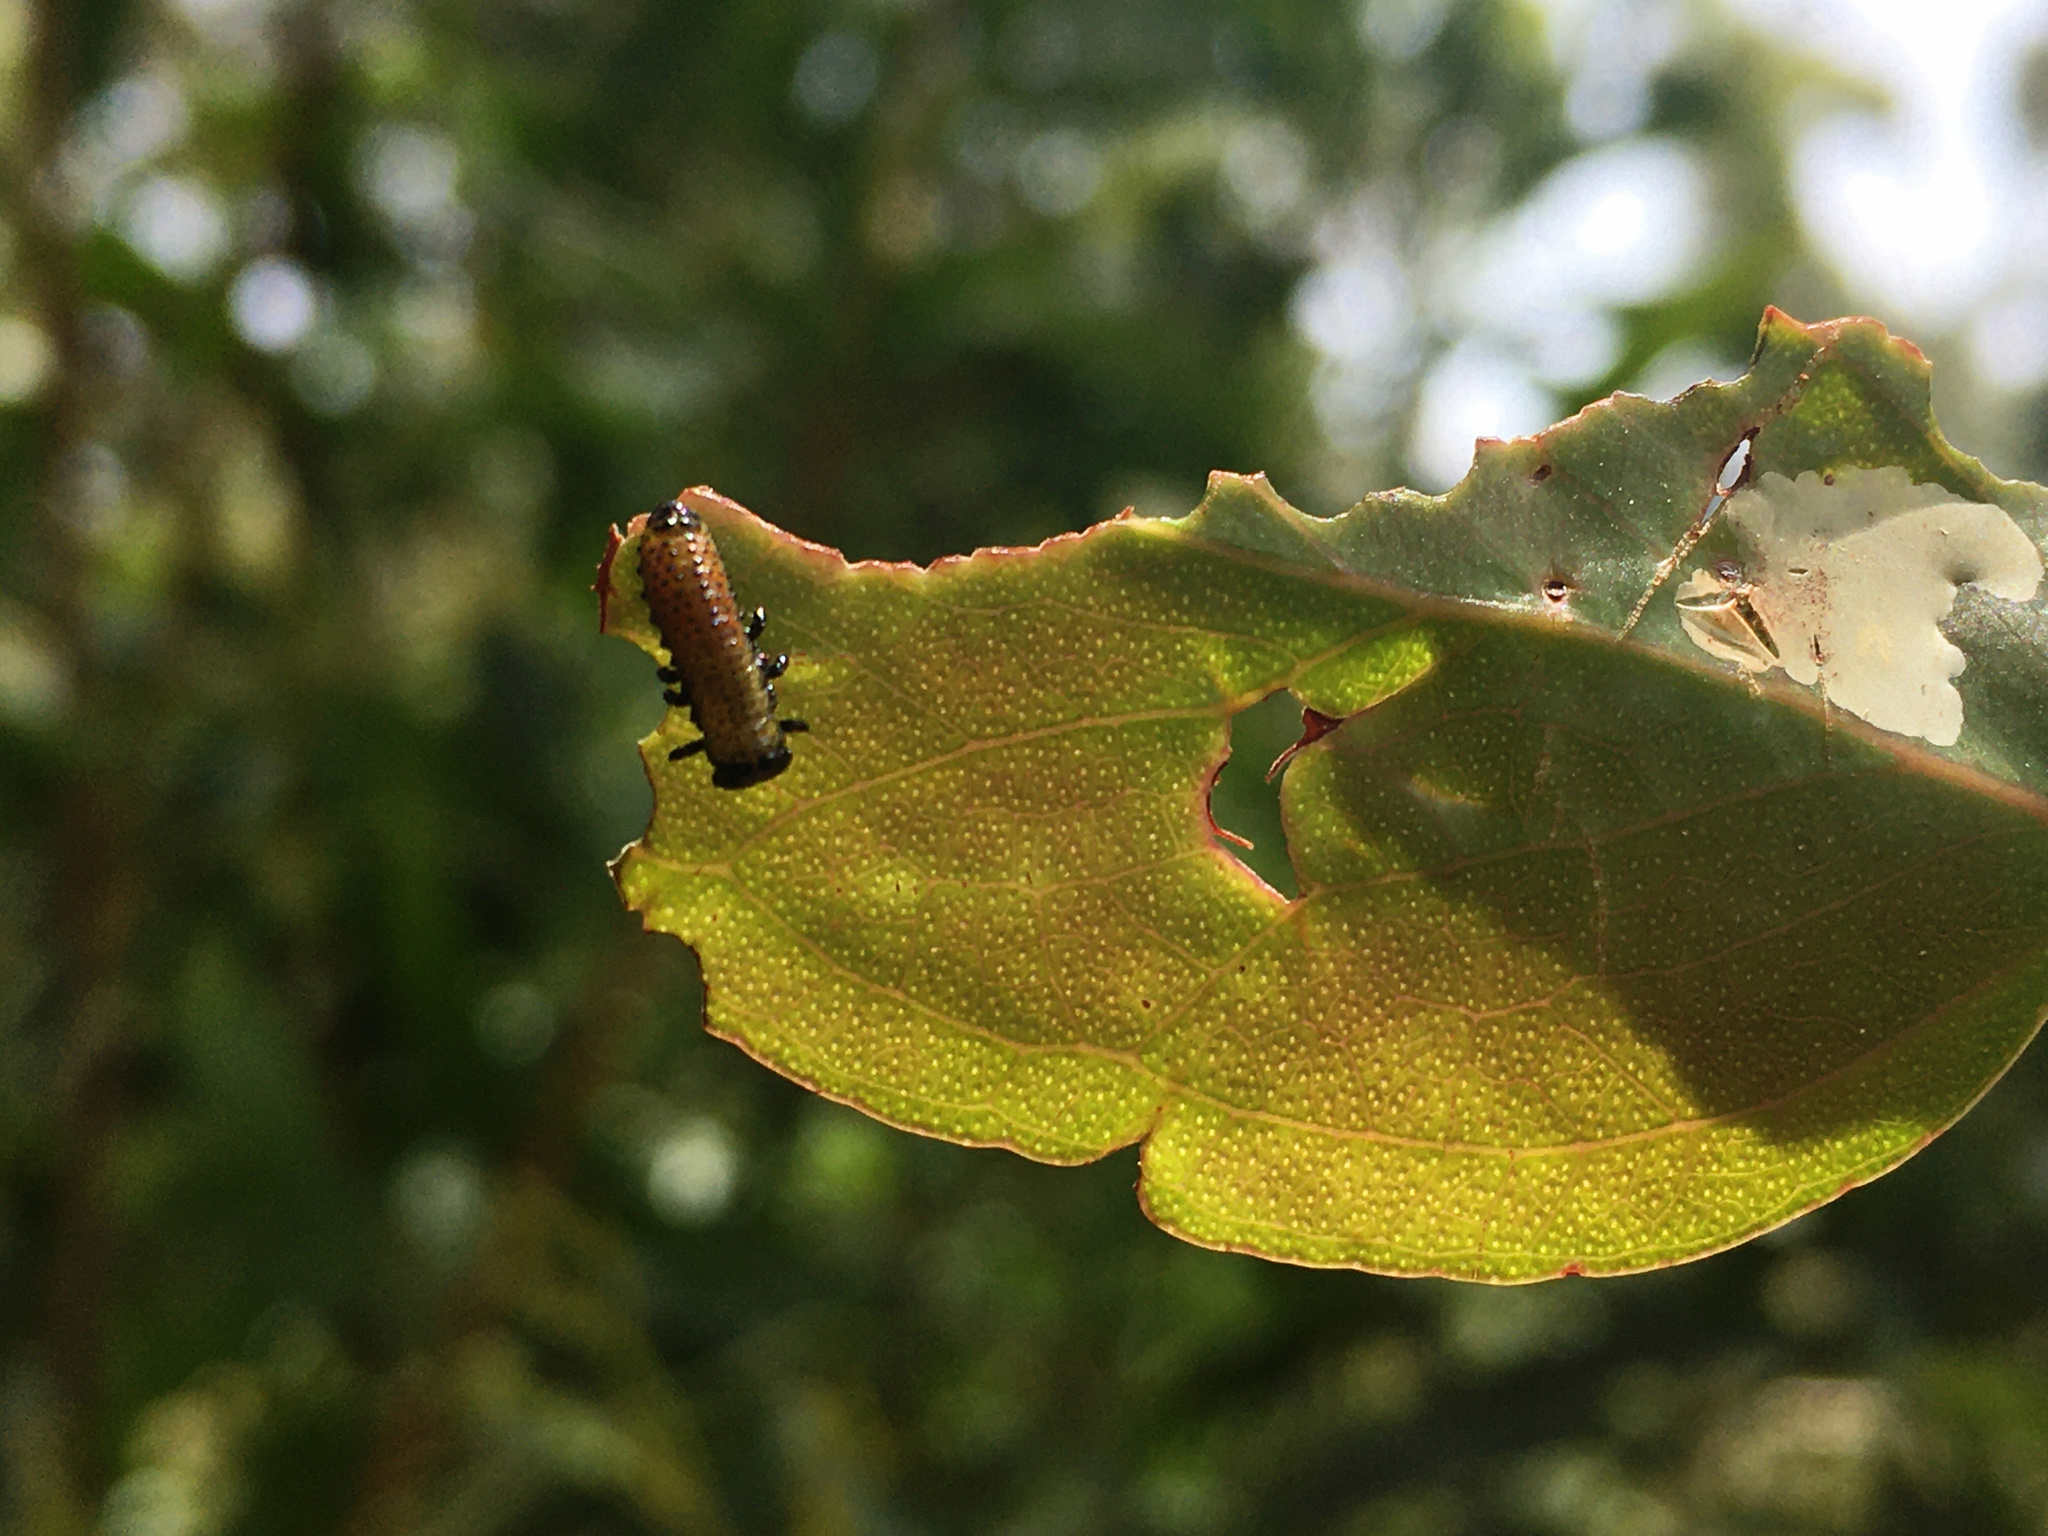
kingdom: Animalia
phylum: Arthropoda
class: Insecta
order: Coleoptera
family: Chrysomelidae
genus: Paropsis
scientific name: Paropsis charybdis
